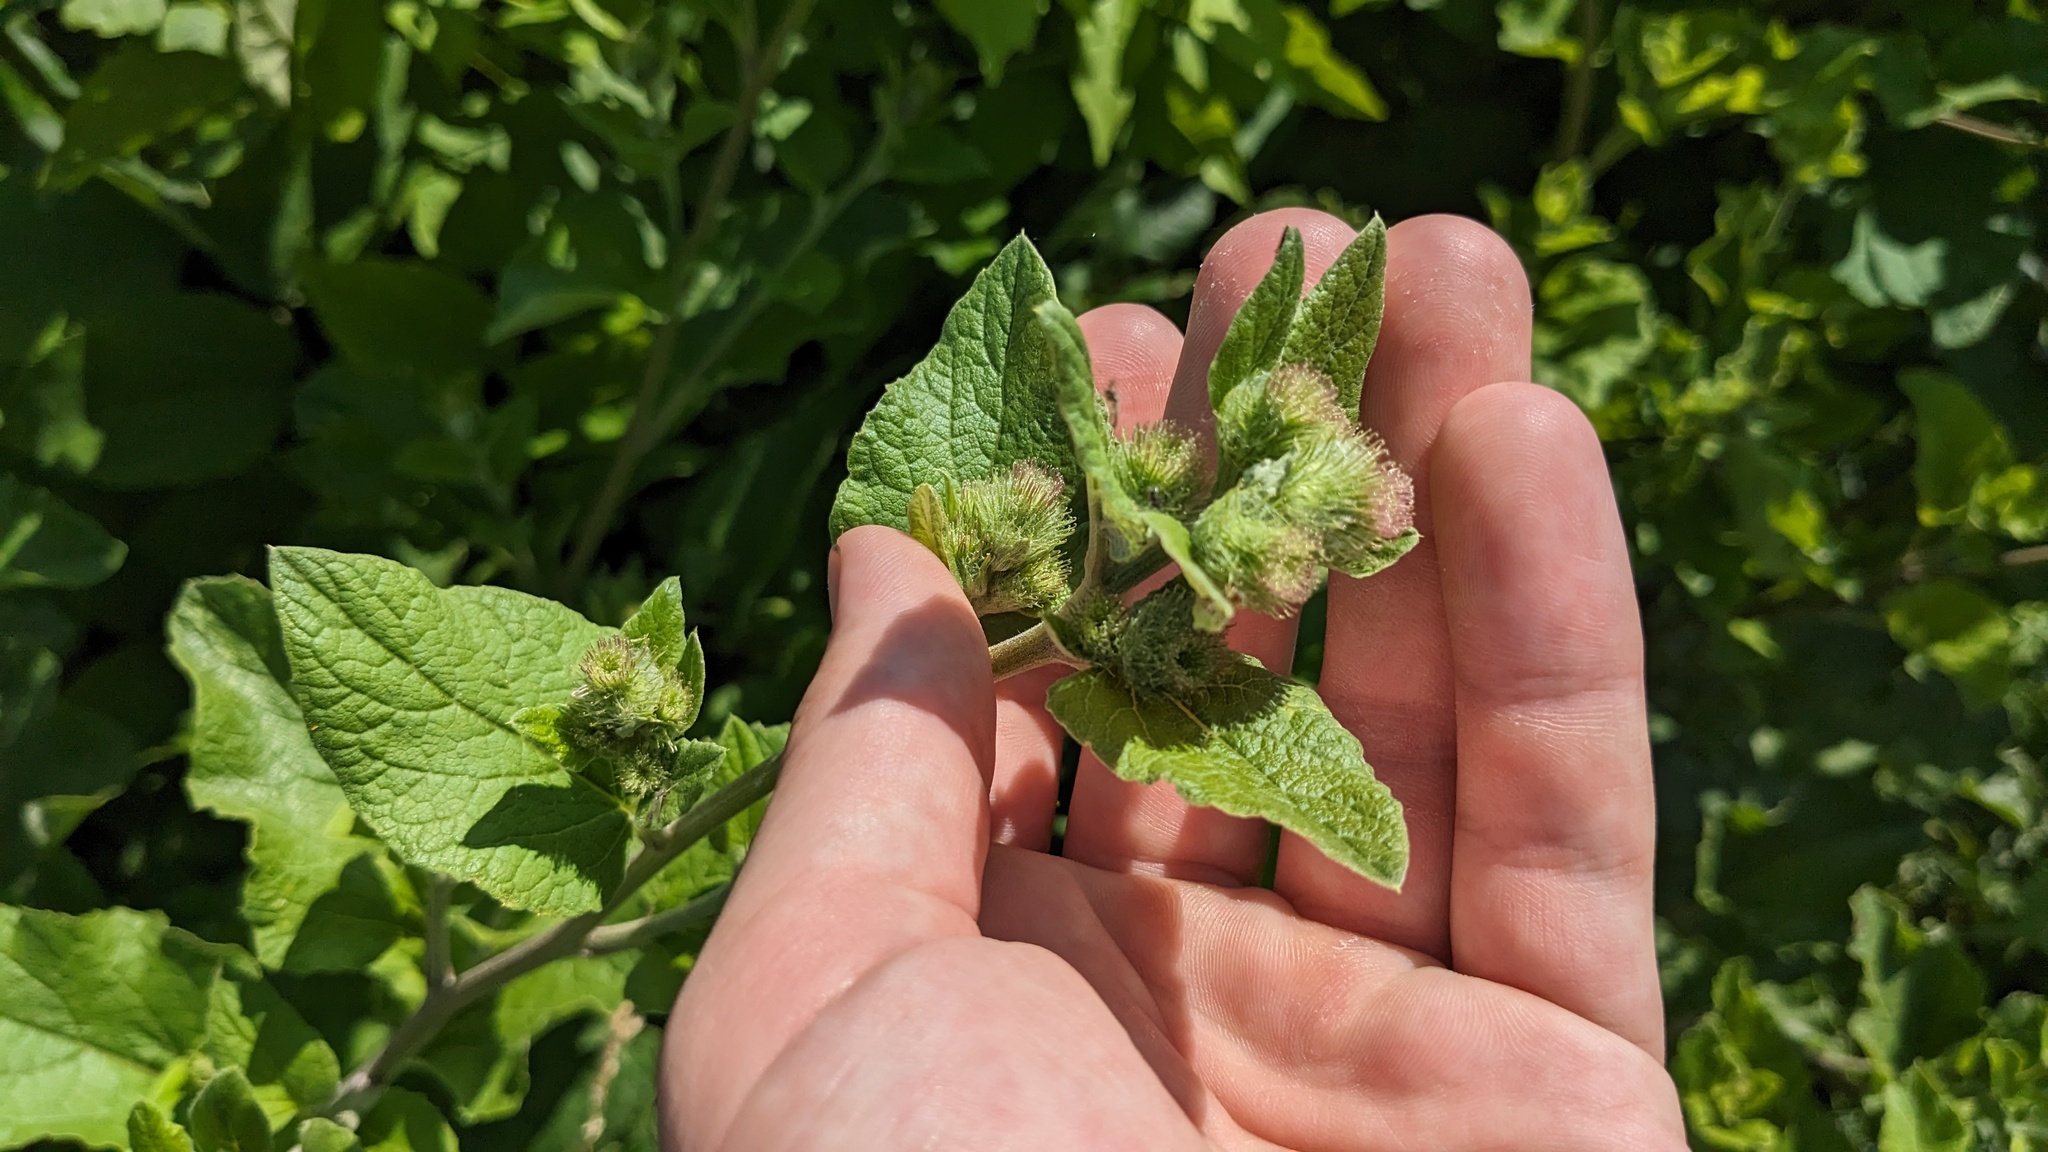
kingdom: Plantae
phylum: Tracheophyta
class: Magnoliopsida
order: Asterales
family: Asteraceae
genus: Arctium
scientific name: Arctium minus
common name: Lesser burdock
